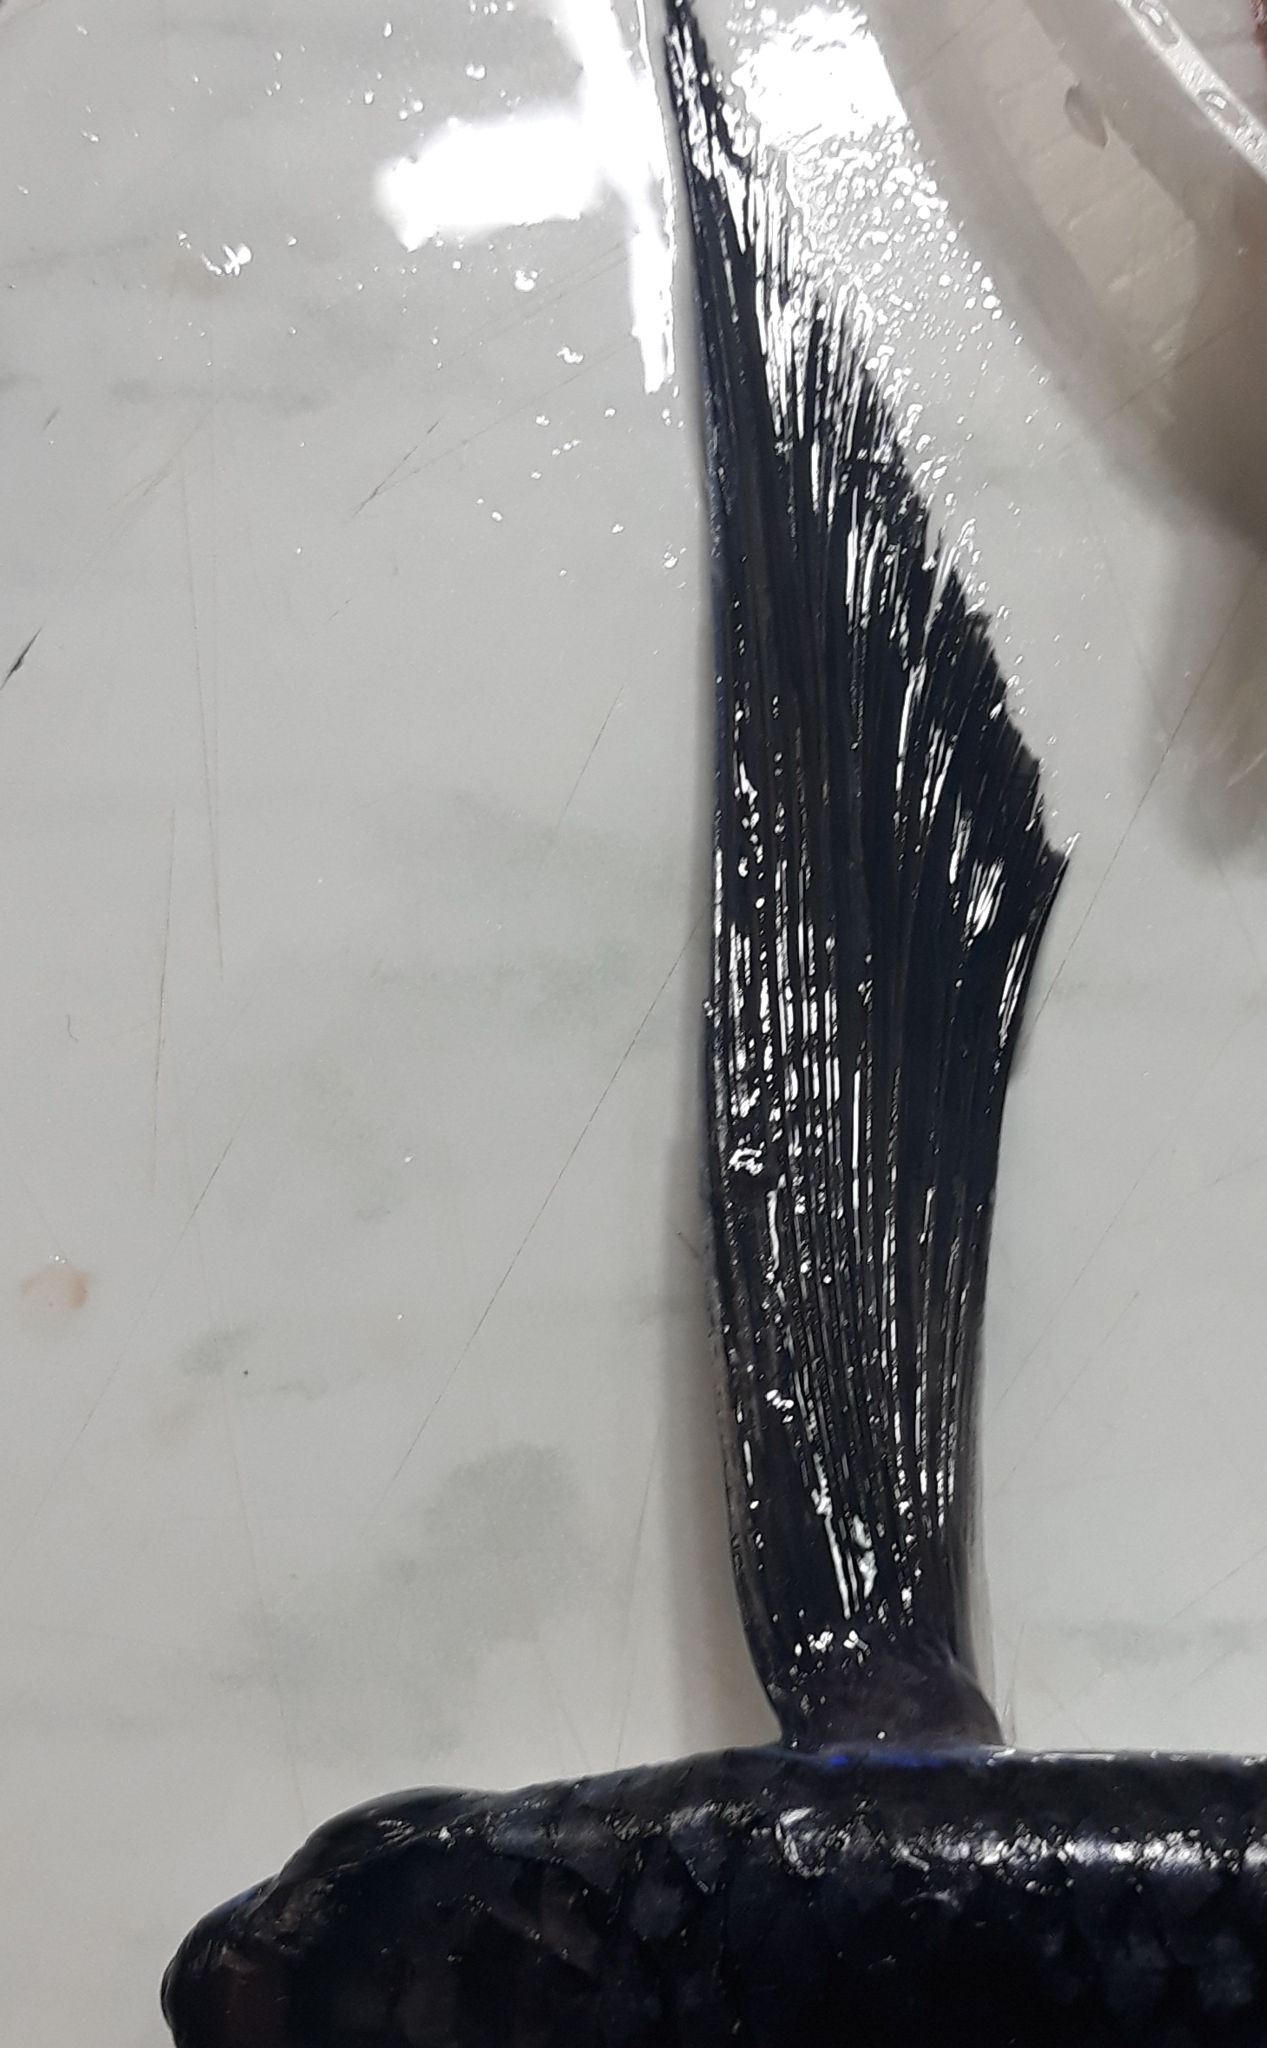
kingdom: Animalia
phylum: Chordata
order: Beloniformes
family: Exocoetidae
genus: Hirundichthys
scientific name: Hirundichthys rondeletii
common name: Blackwing flyingfish
